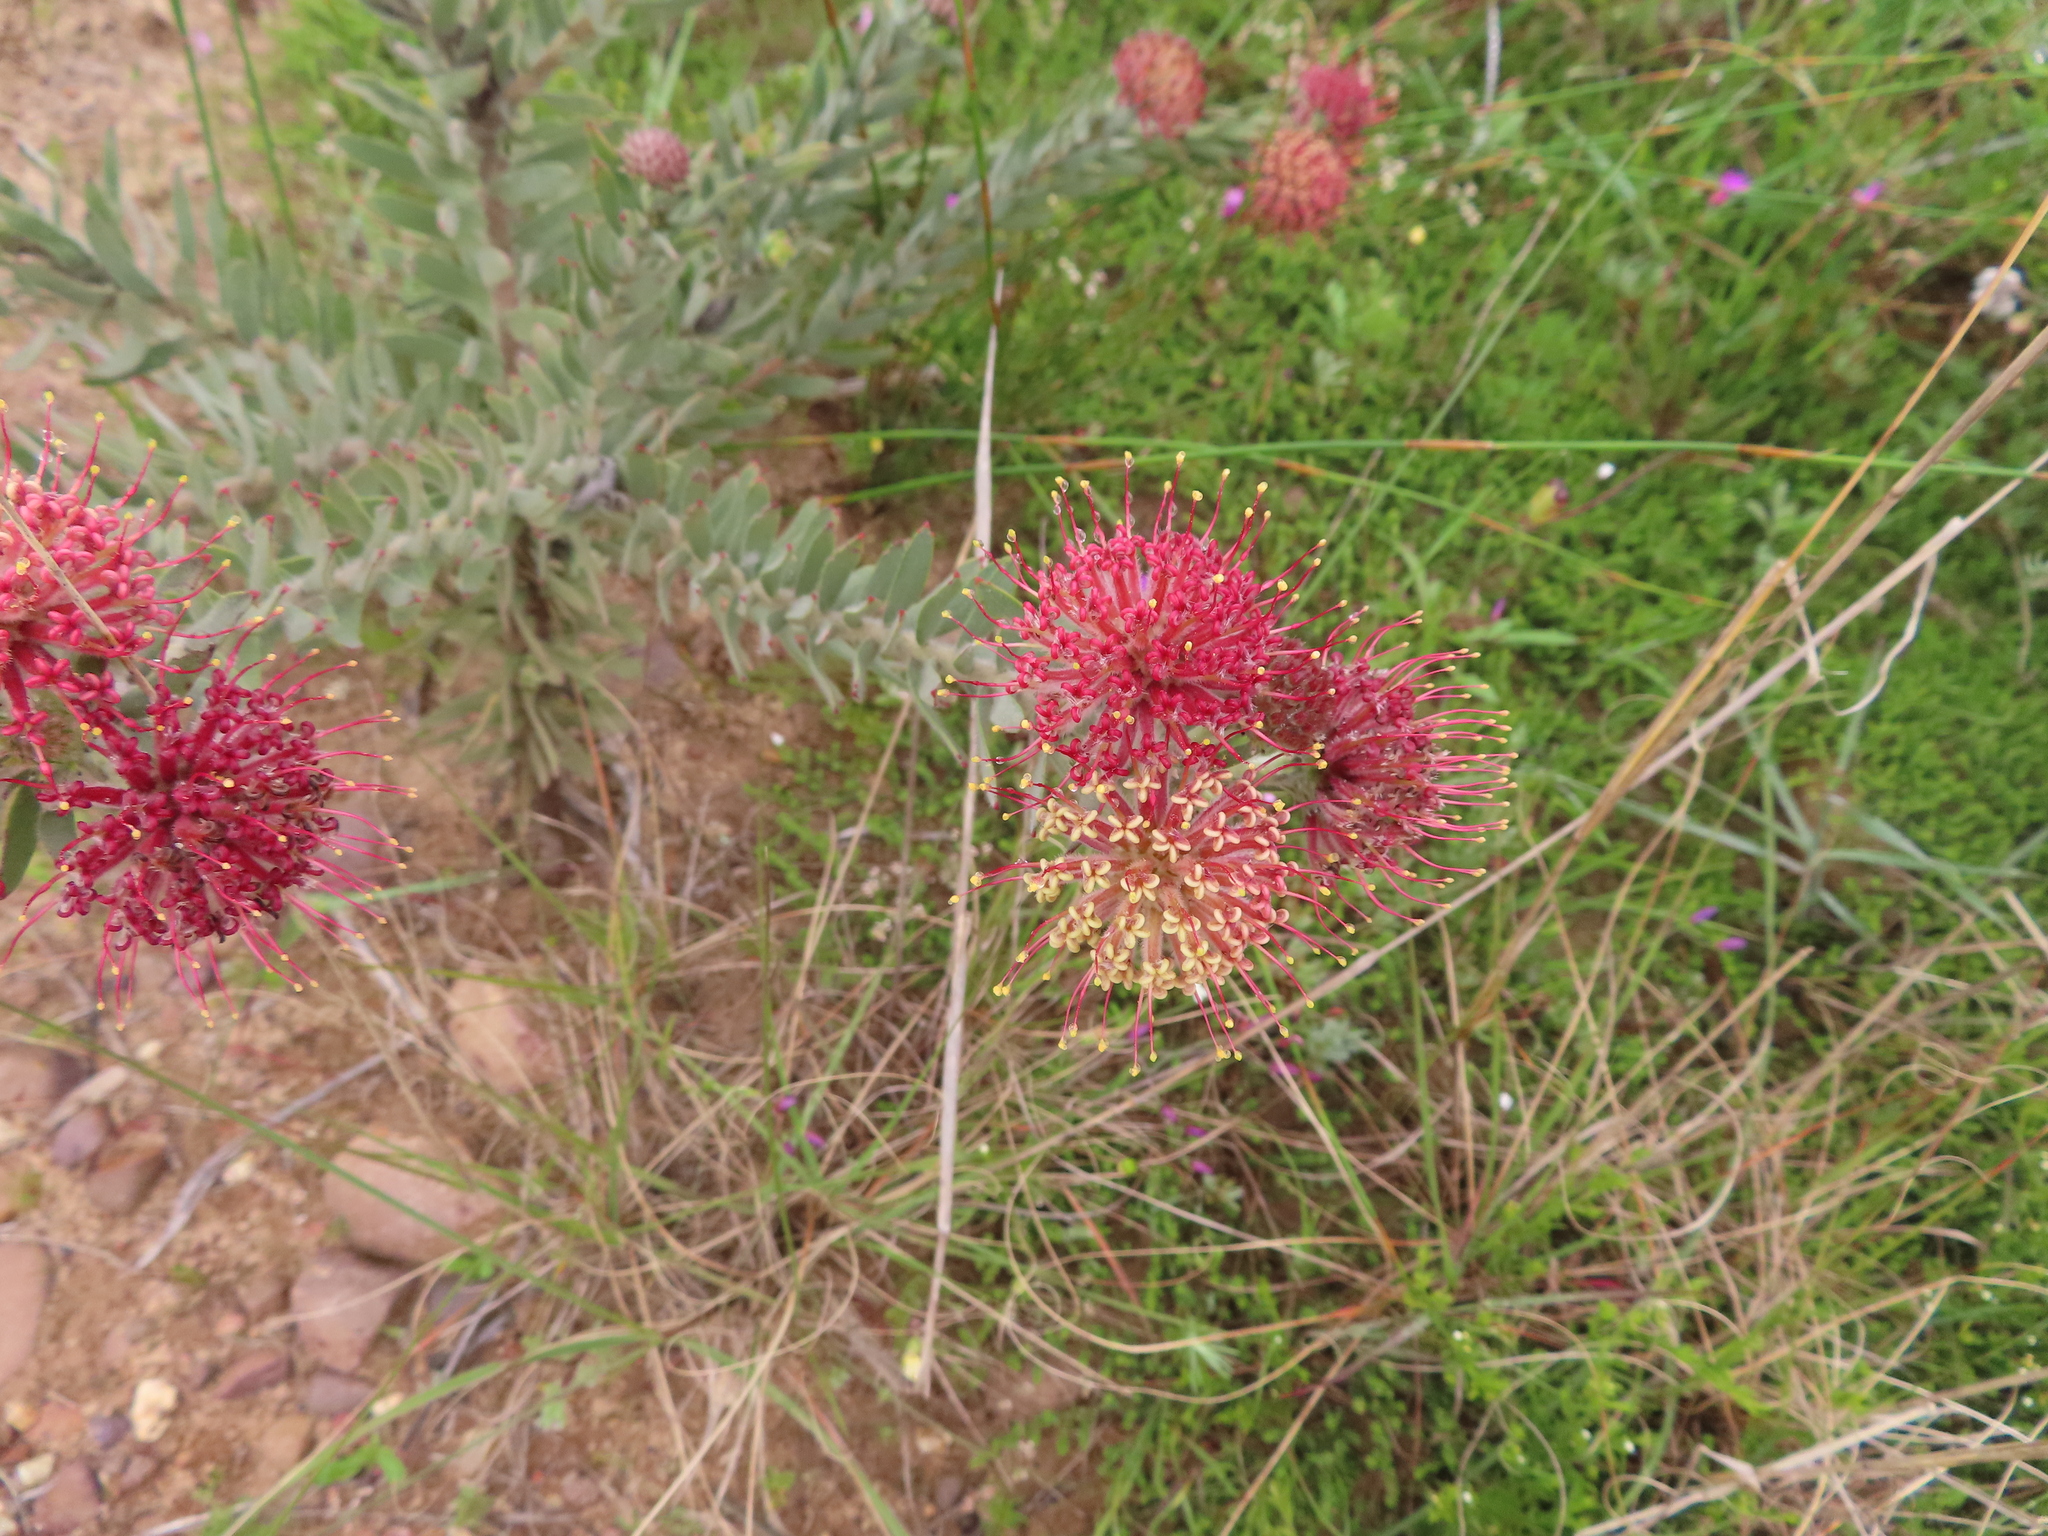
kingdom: Plantae
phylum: Tracheophyta
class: Magnoliopsida
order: Proteales
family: Proteaceae
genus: Leucospermum
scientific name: Leucospermum calligerum
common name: Arid pincushion
